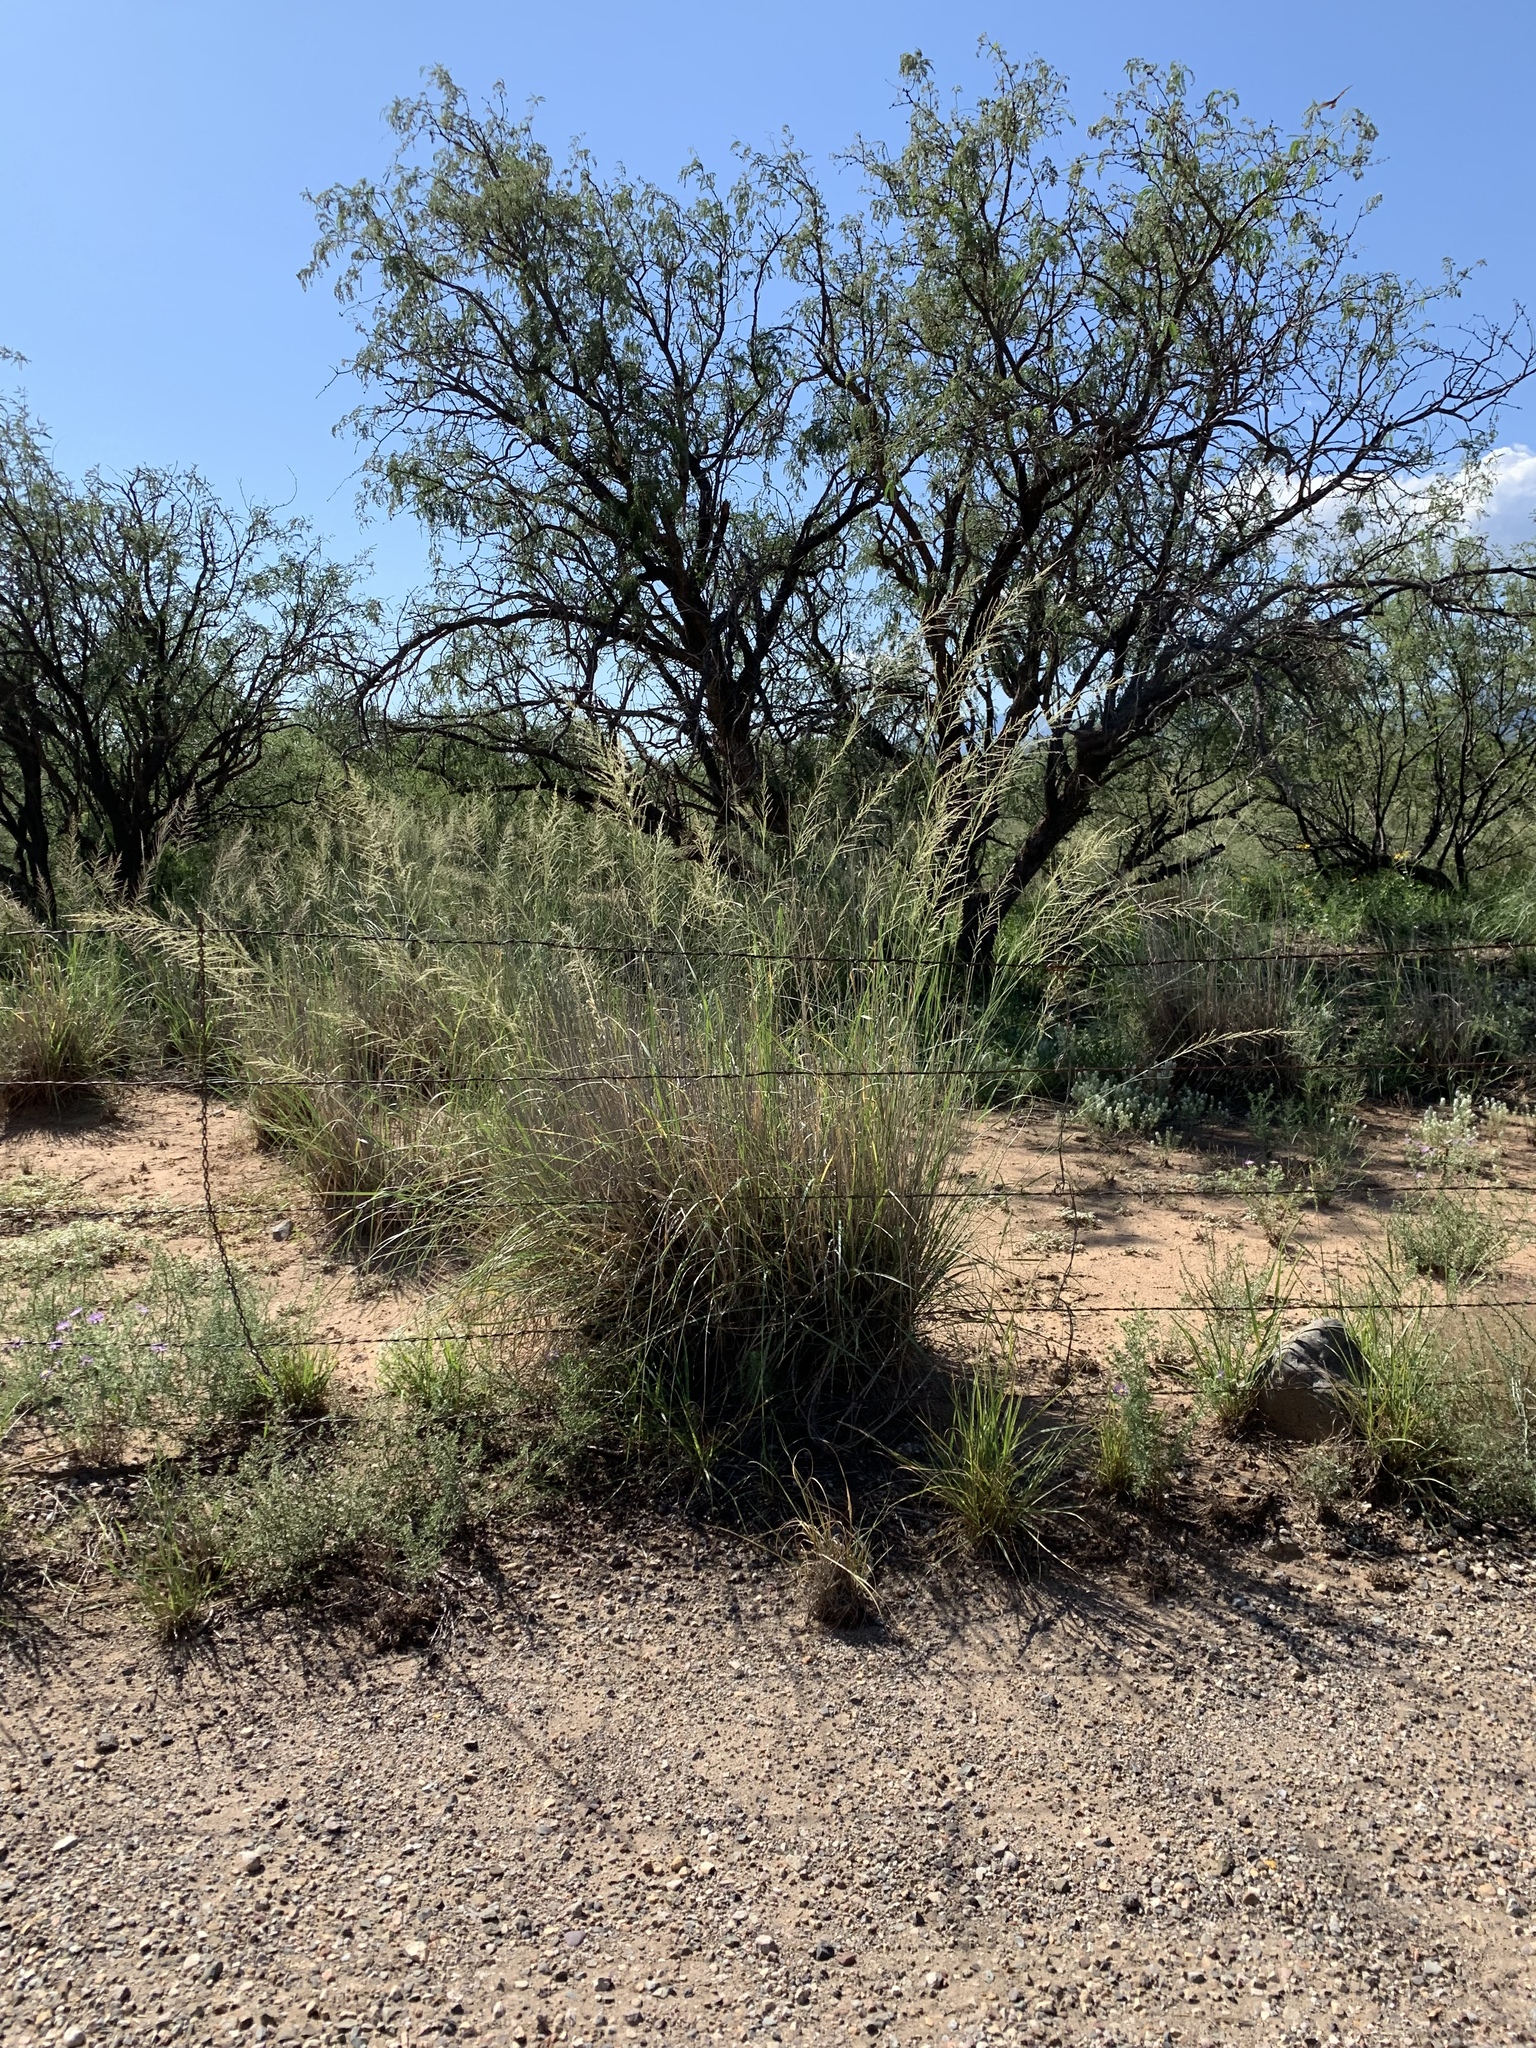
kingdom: Plantae
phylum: Tracheophyta
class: Liliopsida
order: Poales
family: Poaceae
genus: Sporobolus
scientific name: Sporobolus wrightii
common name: Big alkali sacaton
